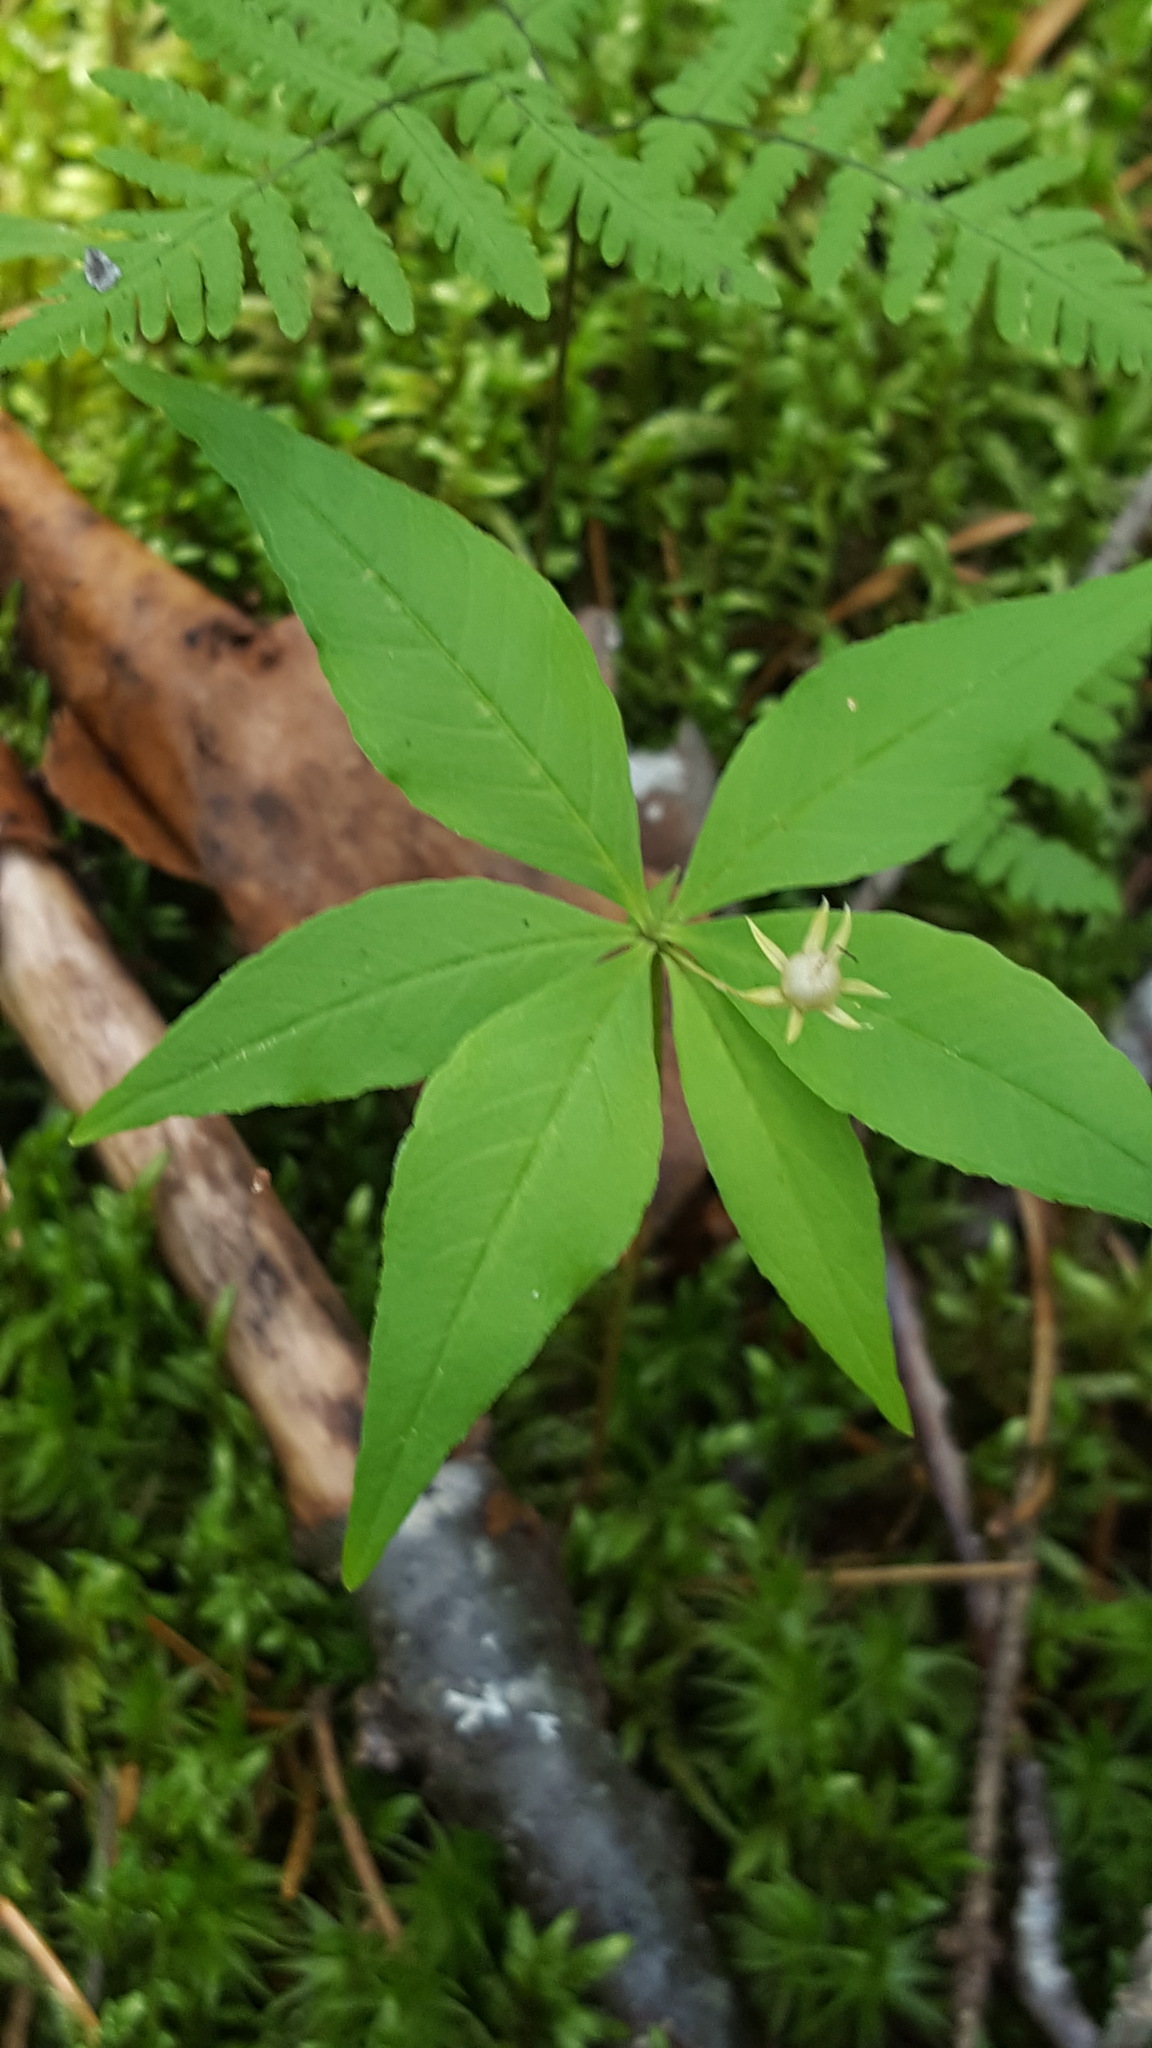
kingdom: Plantae
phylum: Tracheophyta
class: Magnoliopsida
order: Ericales
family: Primulaceae
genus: Lysimachia
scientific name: Lysimachia borealis
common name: American starflower
